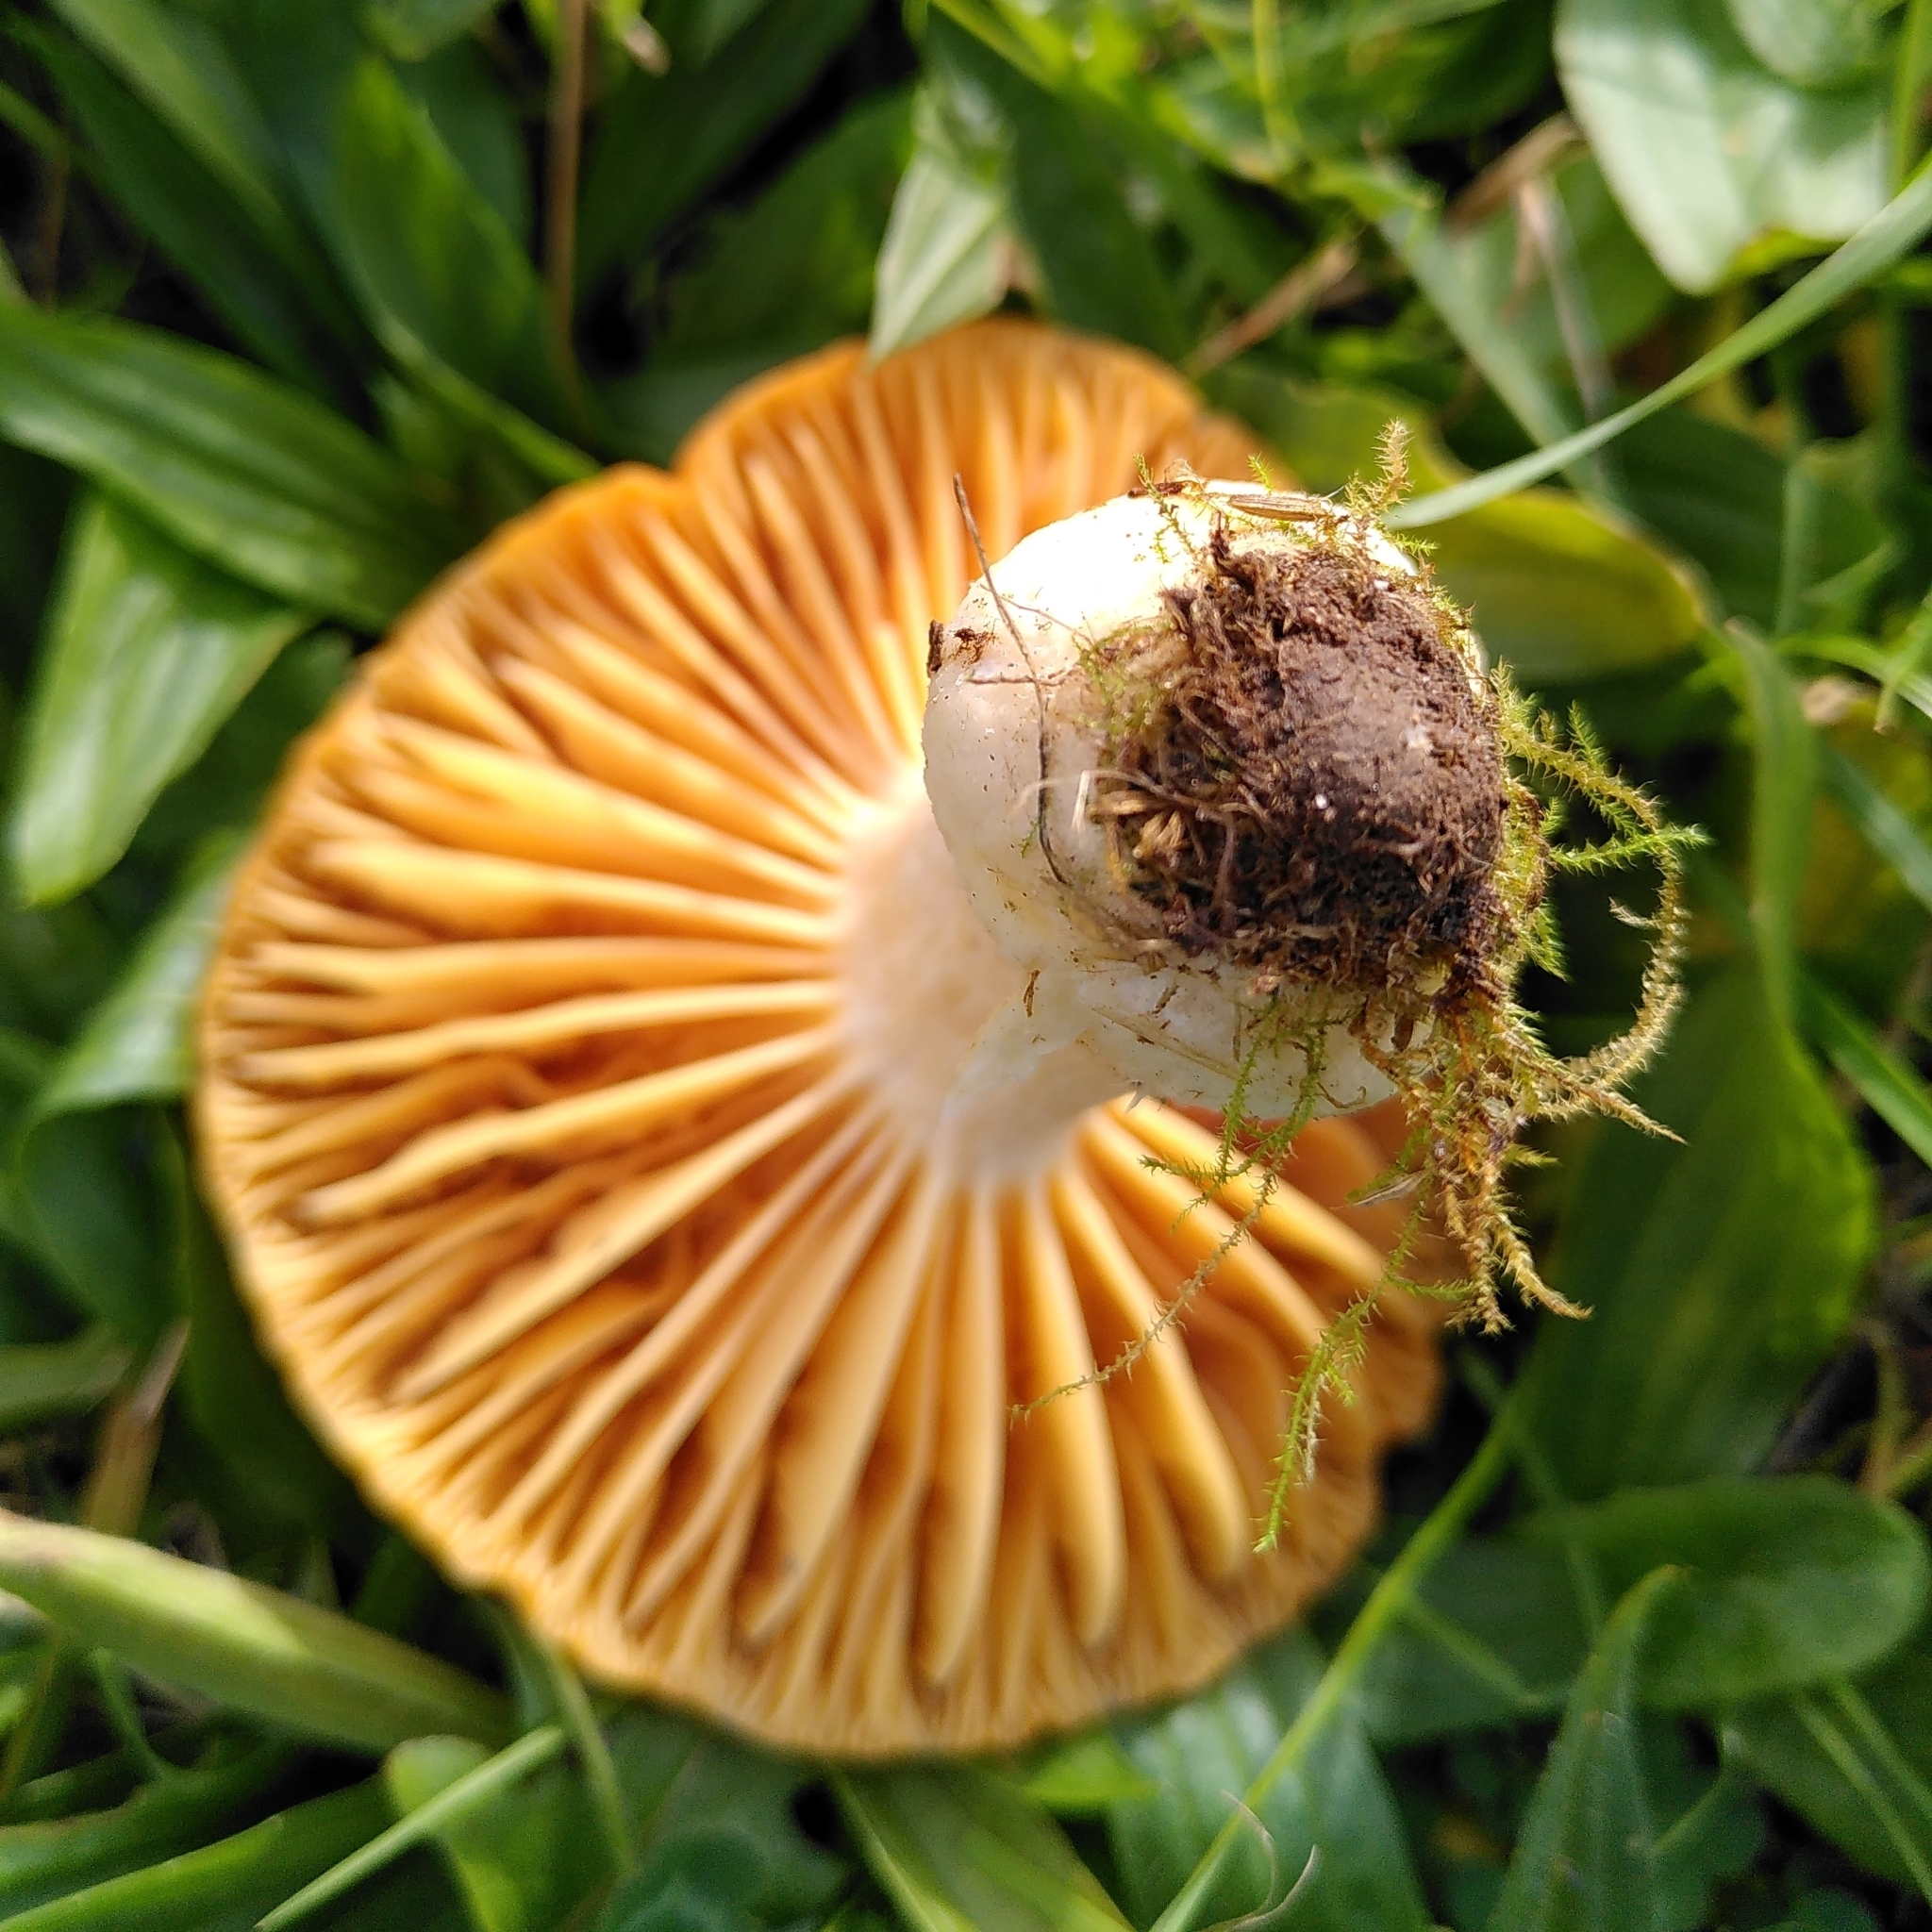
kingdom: Fungi
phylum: Basidiomycota
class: Agaricomycetes
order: Agaricales
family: Hygrophoraceae
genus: Cuphophyllus
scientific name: Cuphophyllus pratensis
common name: Meadow waxcap
